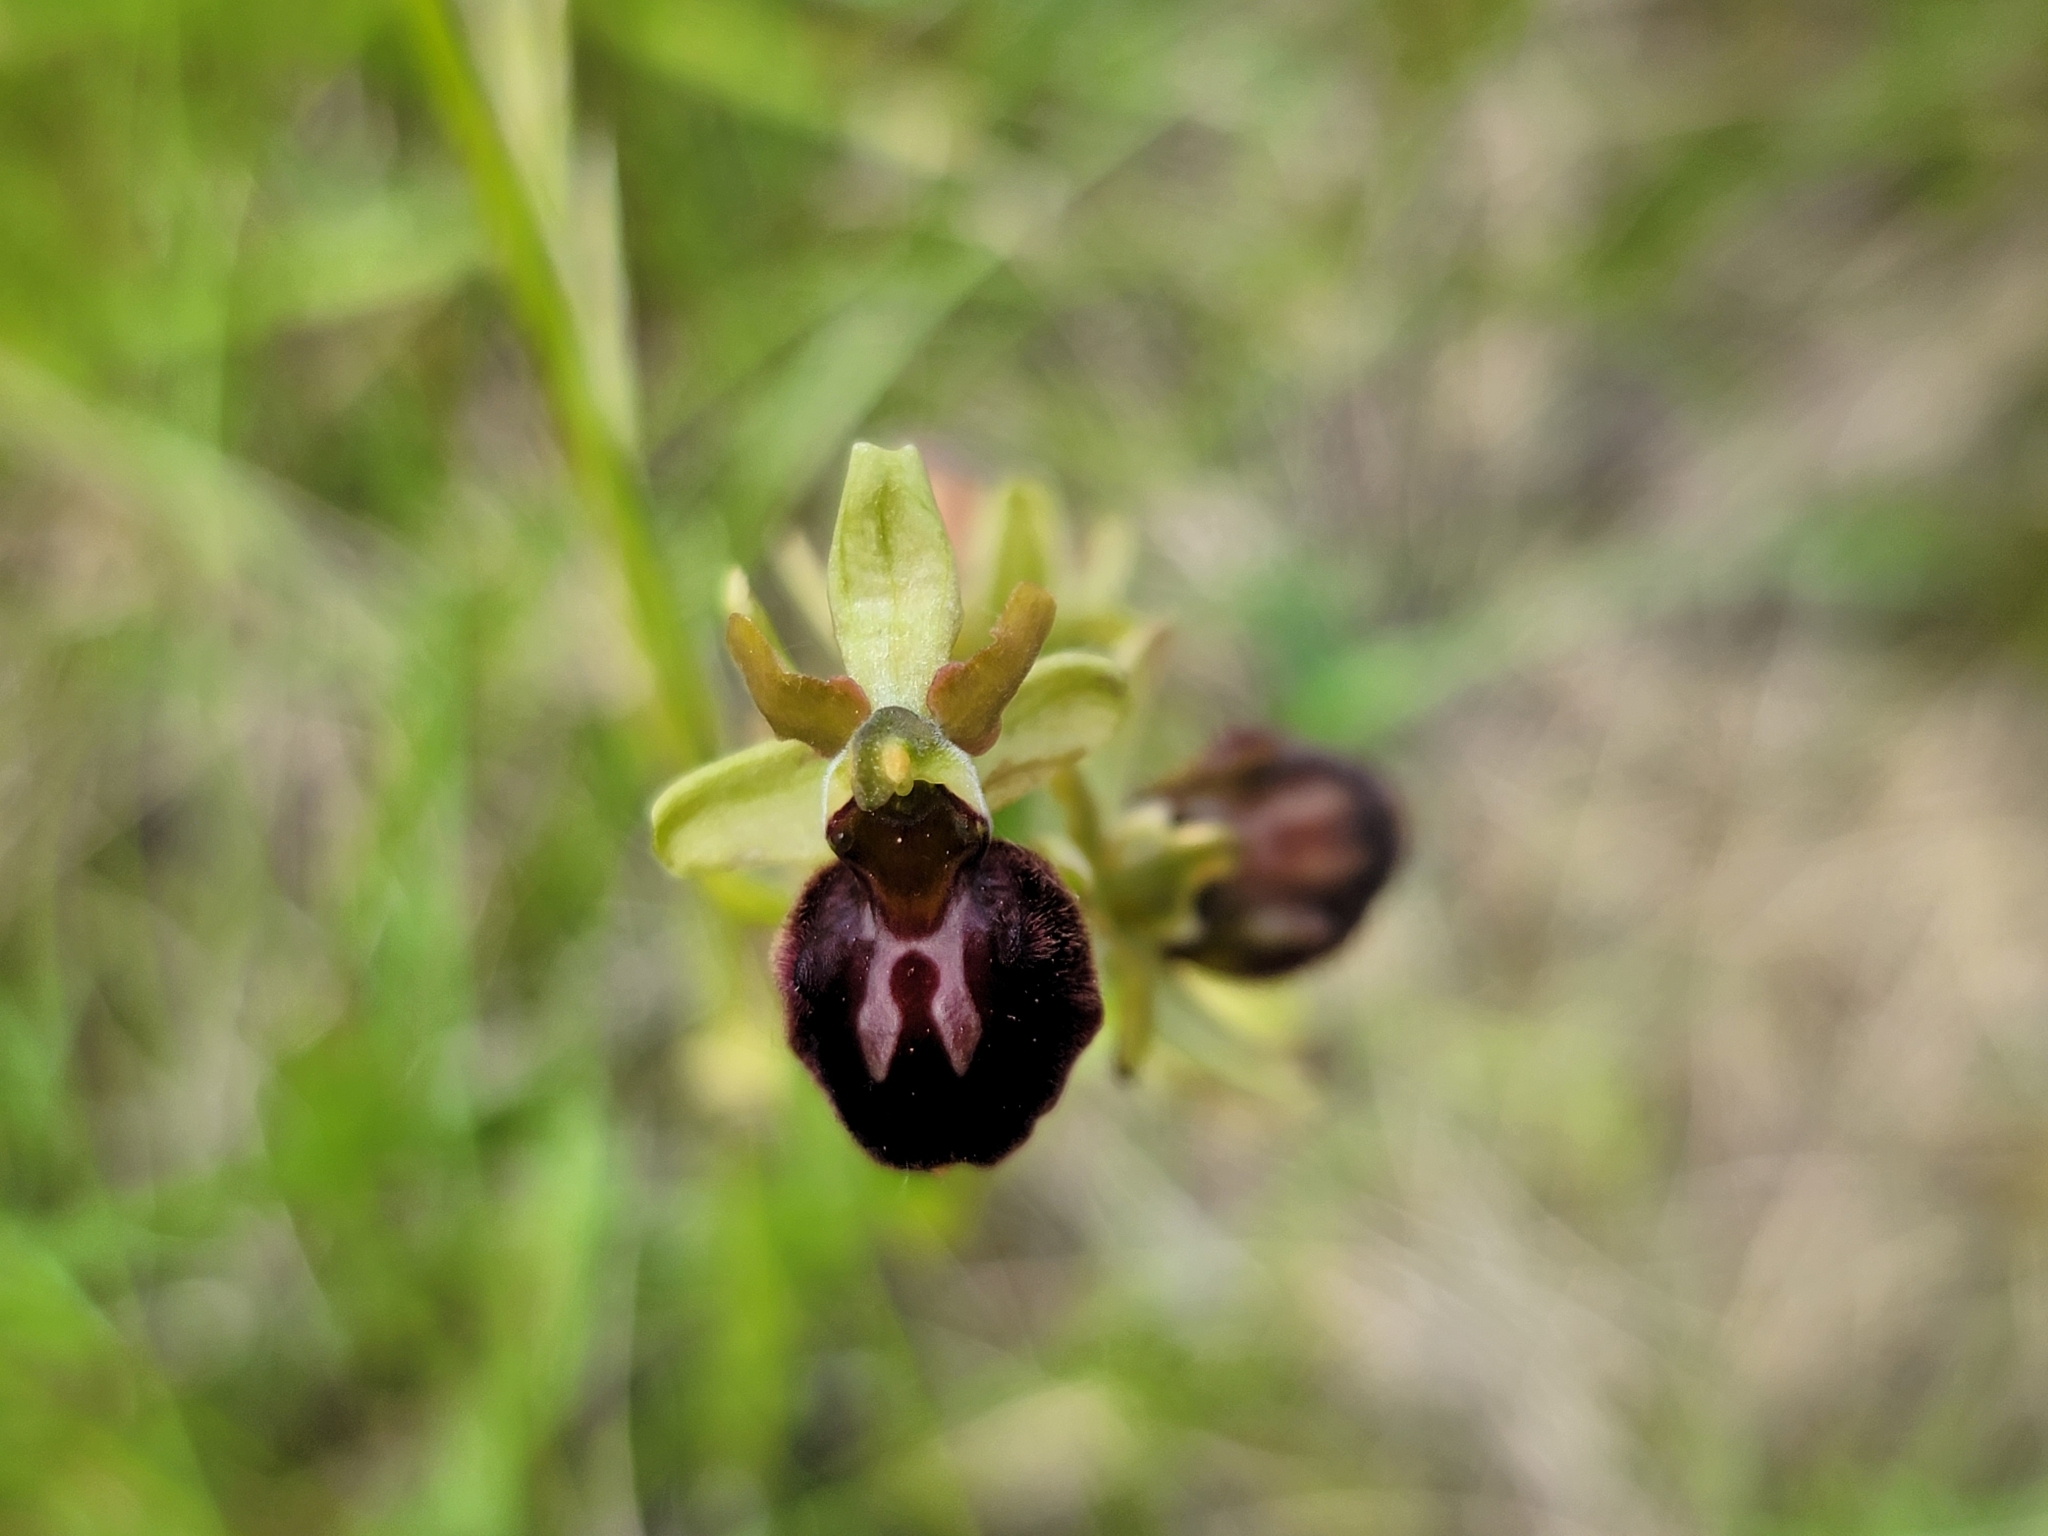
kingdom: Plantae
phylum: Tracheophyta
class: Liliopsida
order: Asparagales
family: Orchidaceae
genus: Ophrys
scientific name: Ophrys sphegodes
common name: Early spider-orchid
